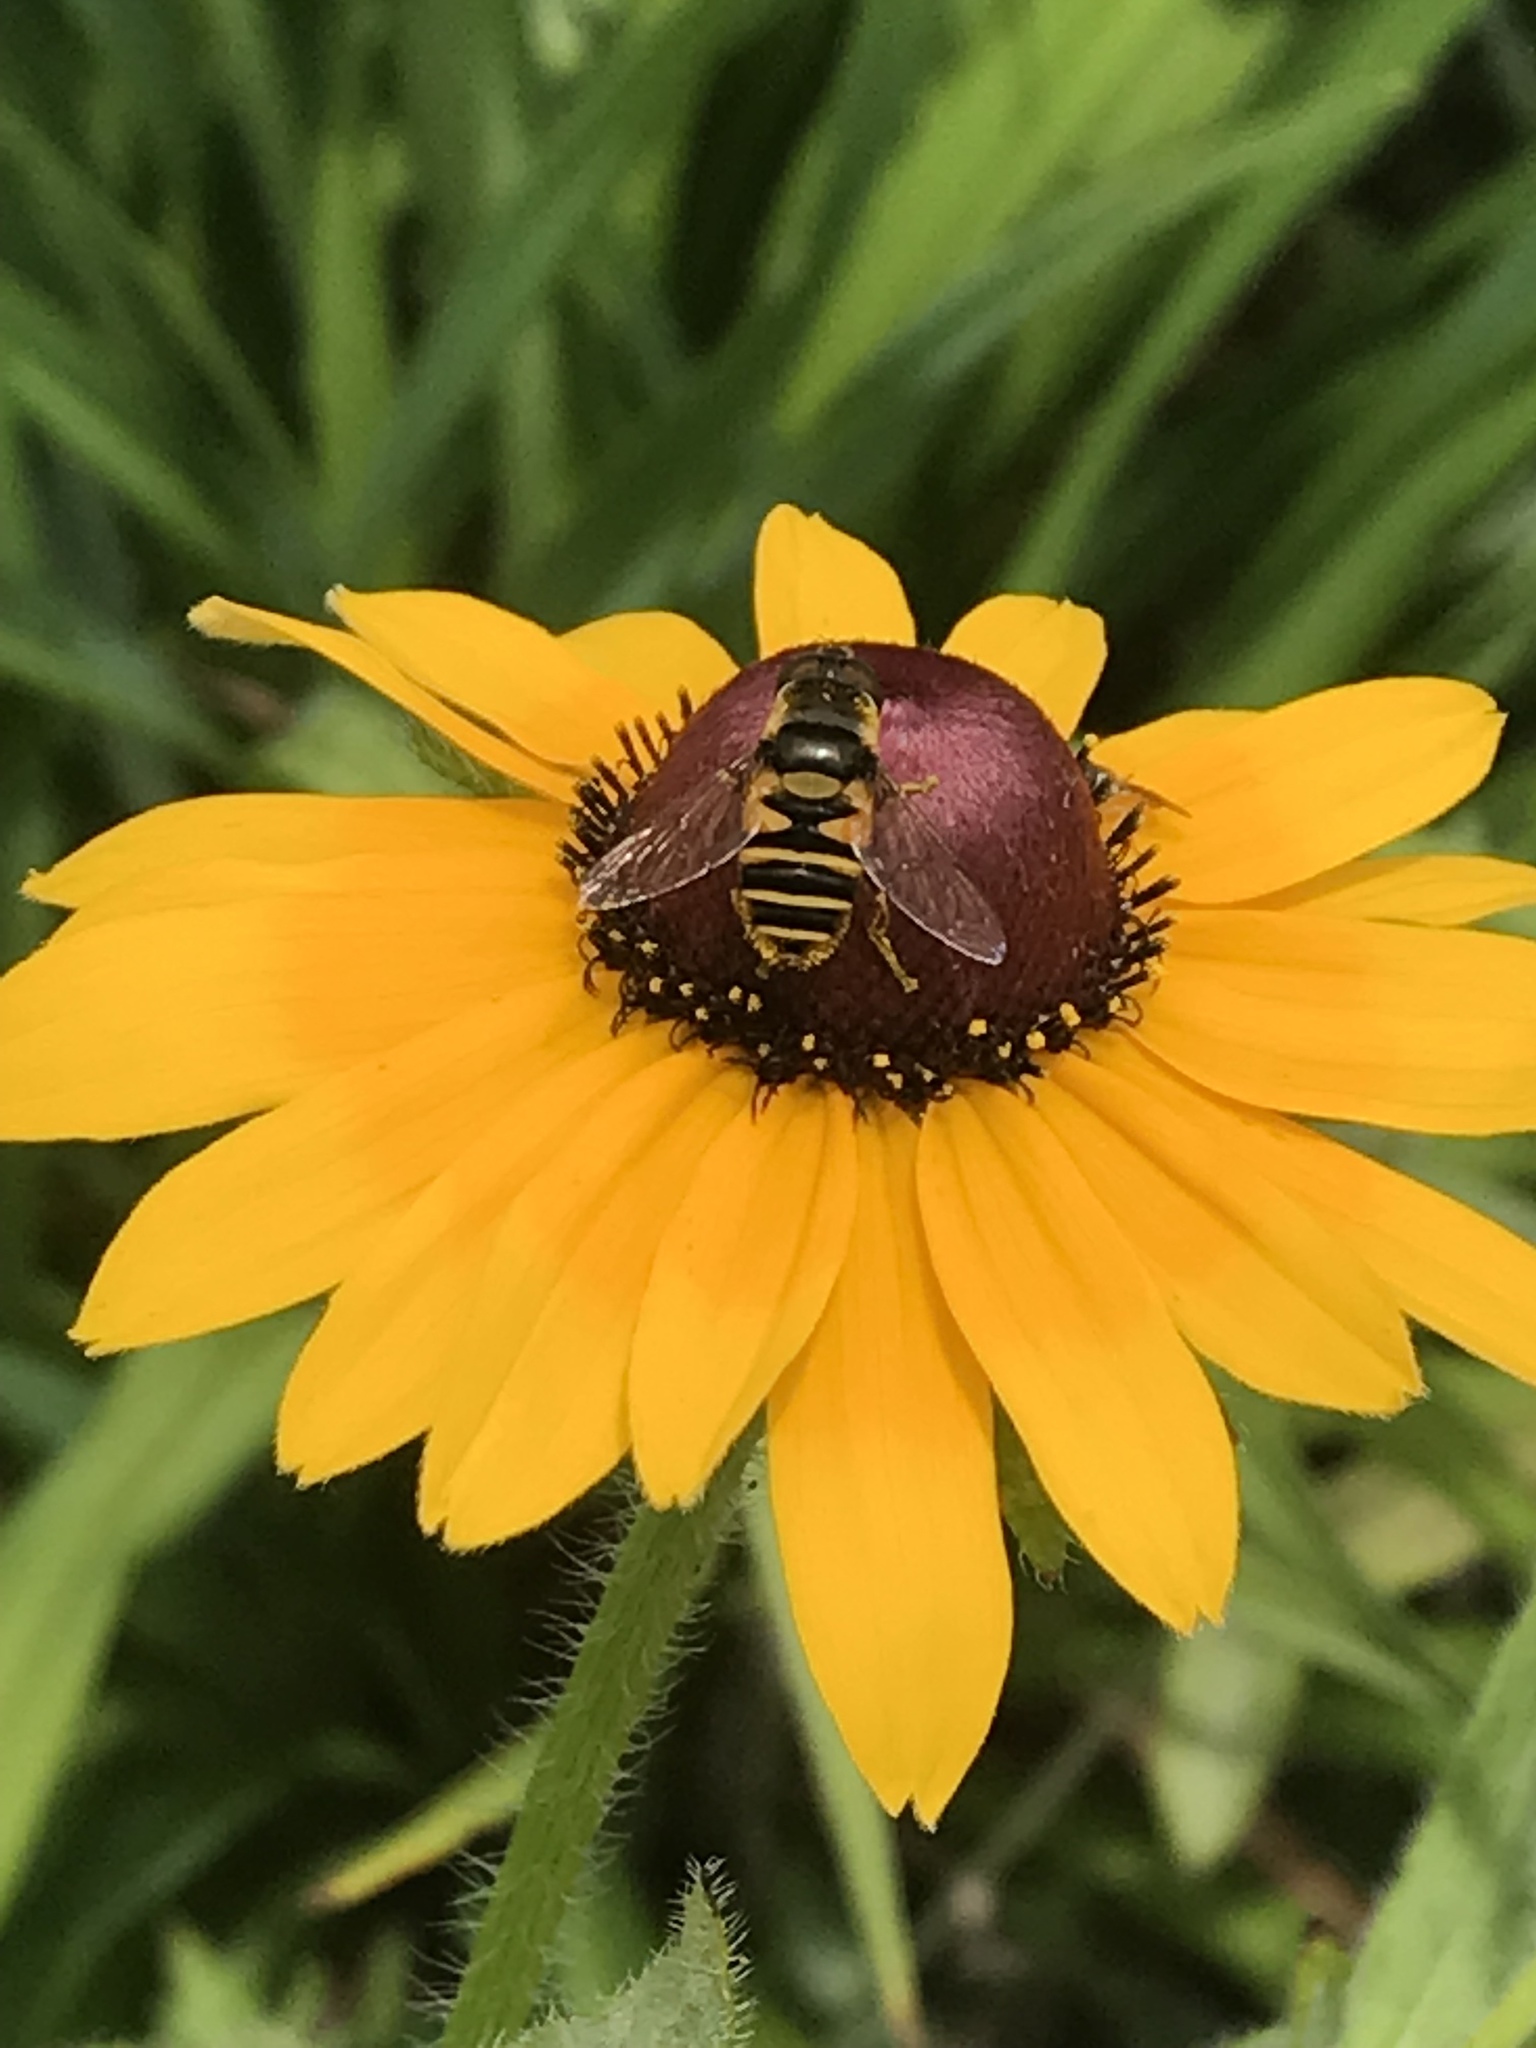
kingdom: Animalia
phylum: Arthropoda
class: Insecta
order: Diptera
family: Syrphidae
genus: Eristalis
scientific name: Eristalis transversa
